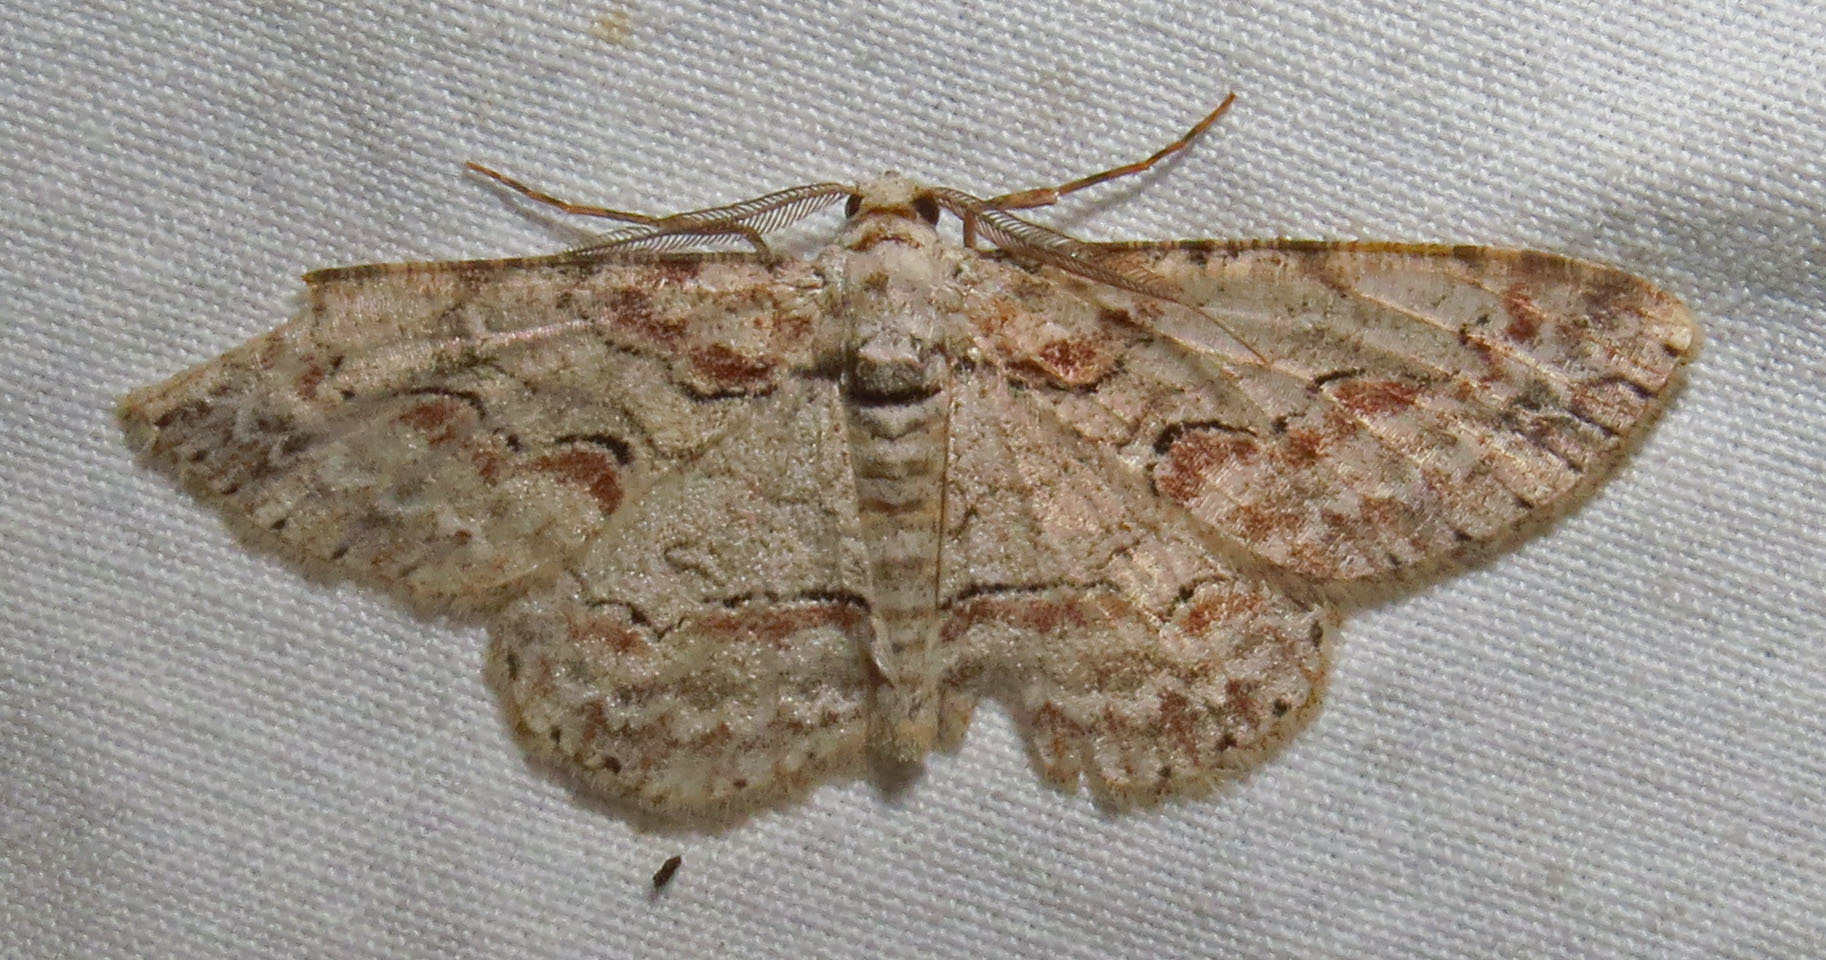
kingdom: Animalia
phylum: Arthropoda
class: Insecta
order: Lepidoptera
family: Geometridae
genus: Iridopsis
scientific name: Iridopsis defectaria
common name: Brown-shaded gray
